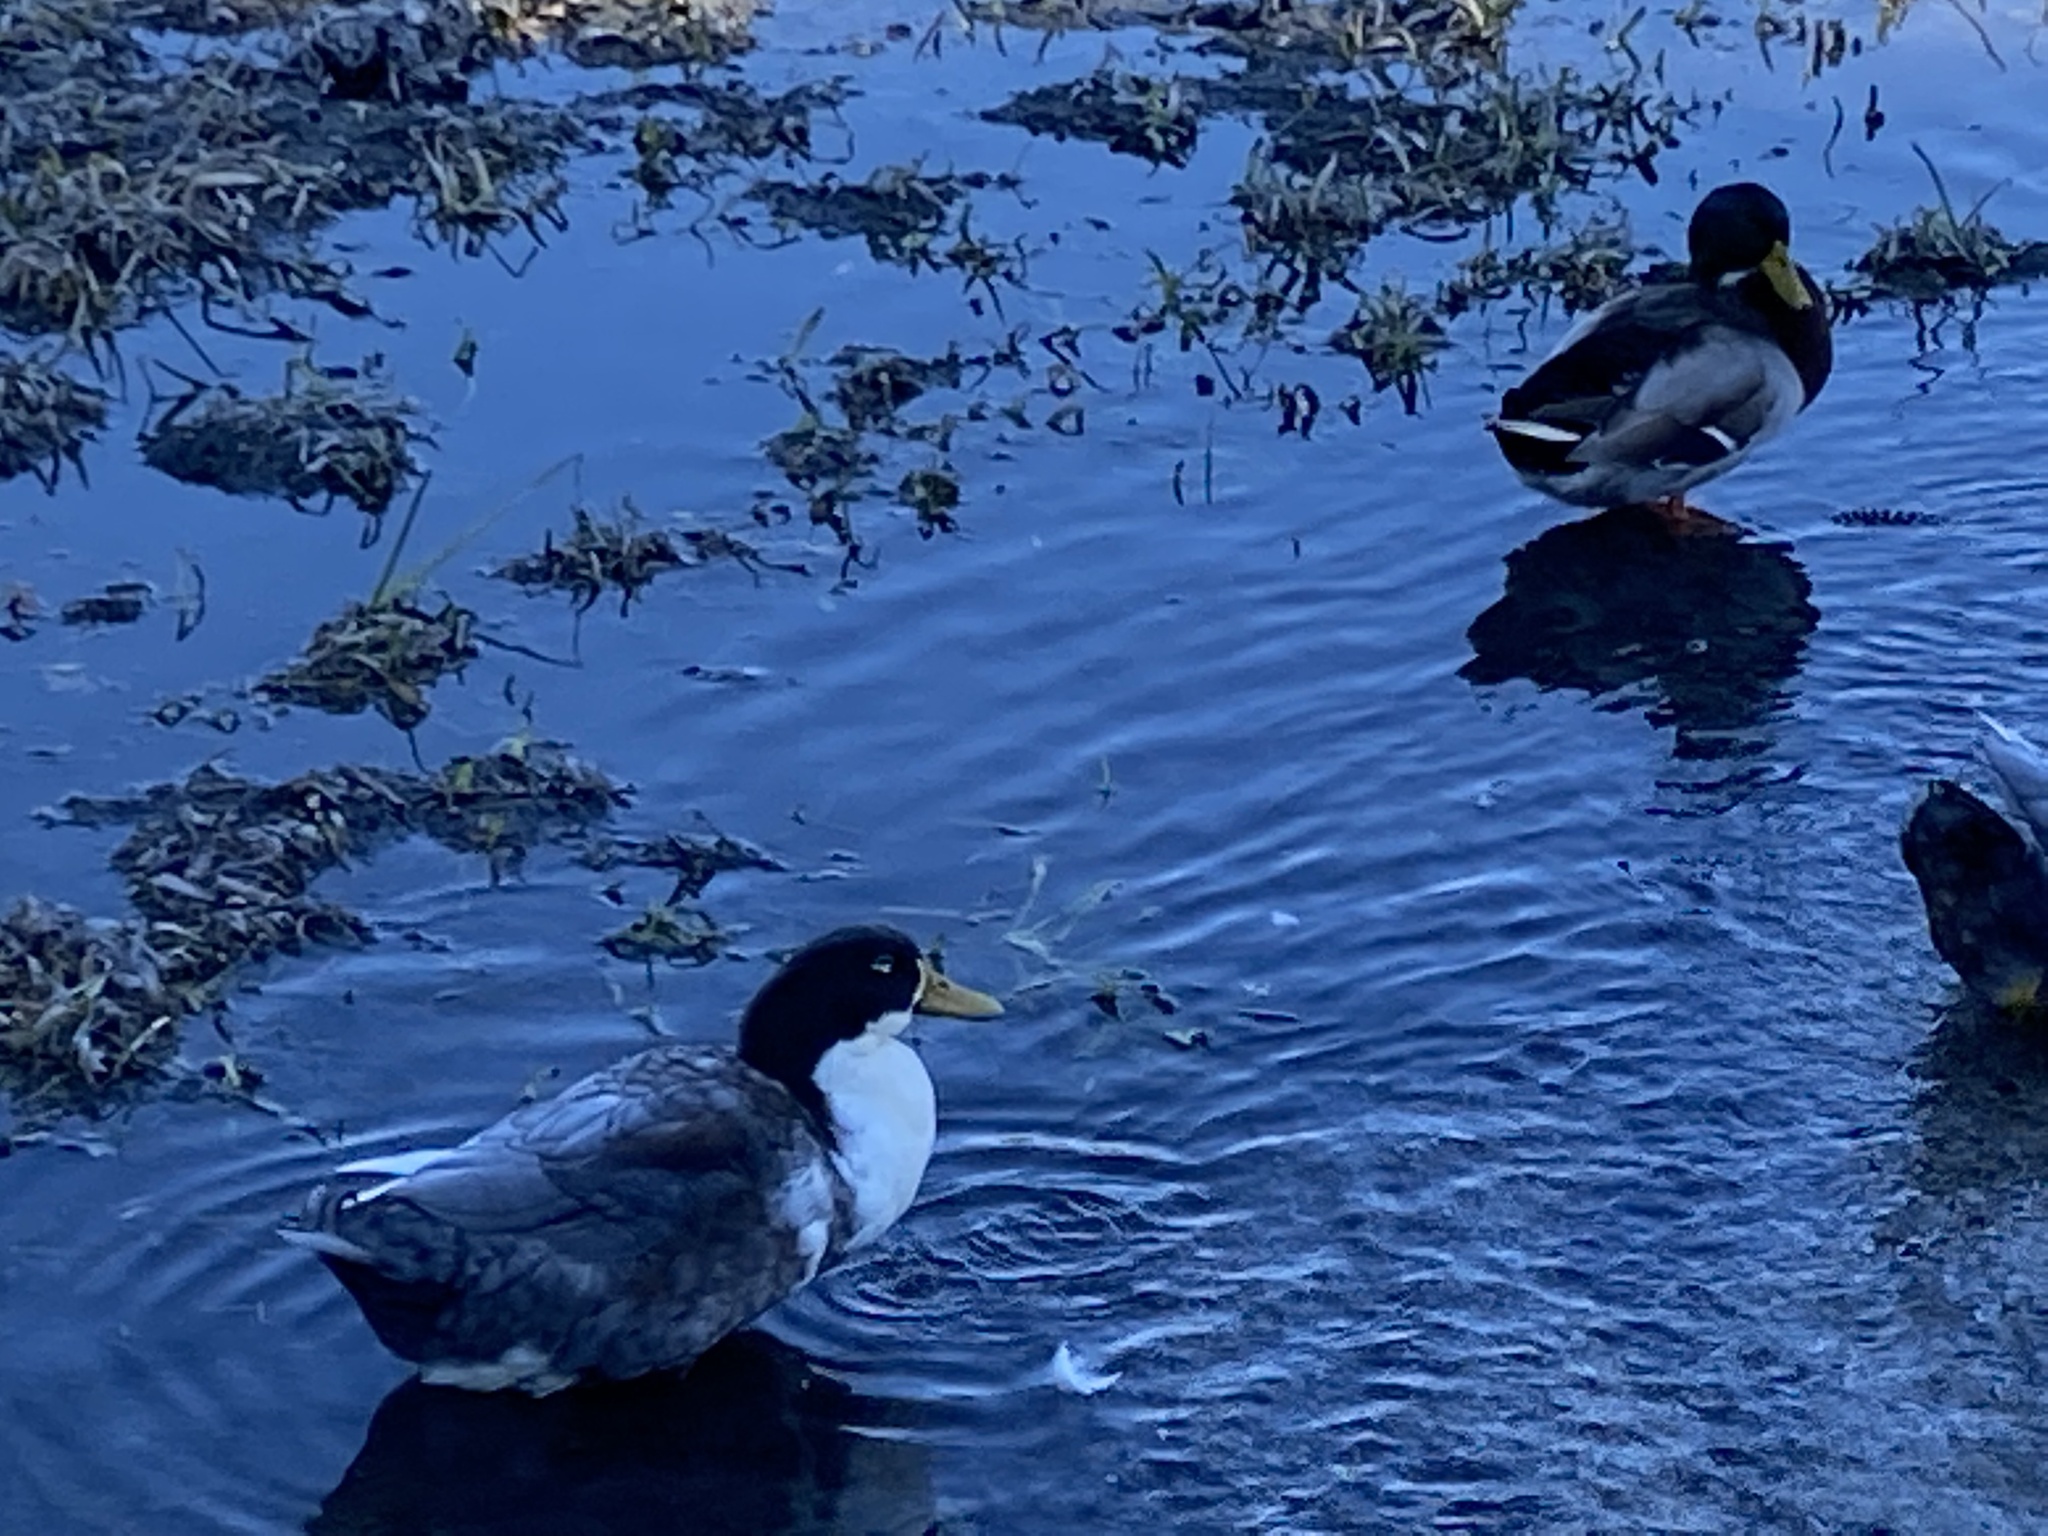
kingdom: Animalia
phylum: Chordata
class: Aves
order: Anseriformes
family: Anatidae
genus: Anas
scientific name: Anas platyrhynchos
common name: Mallard
